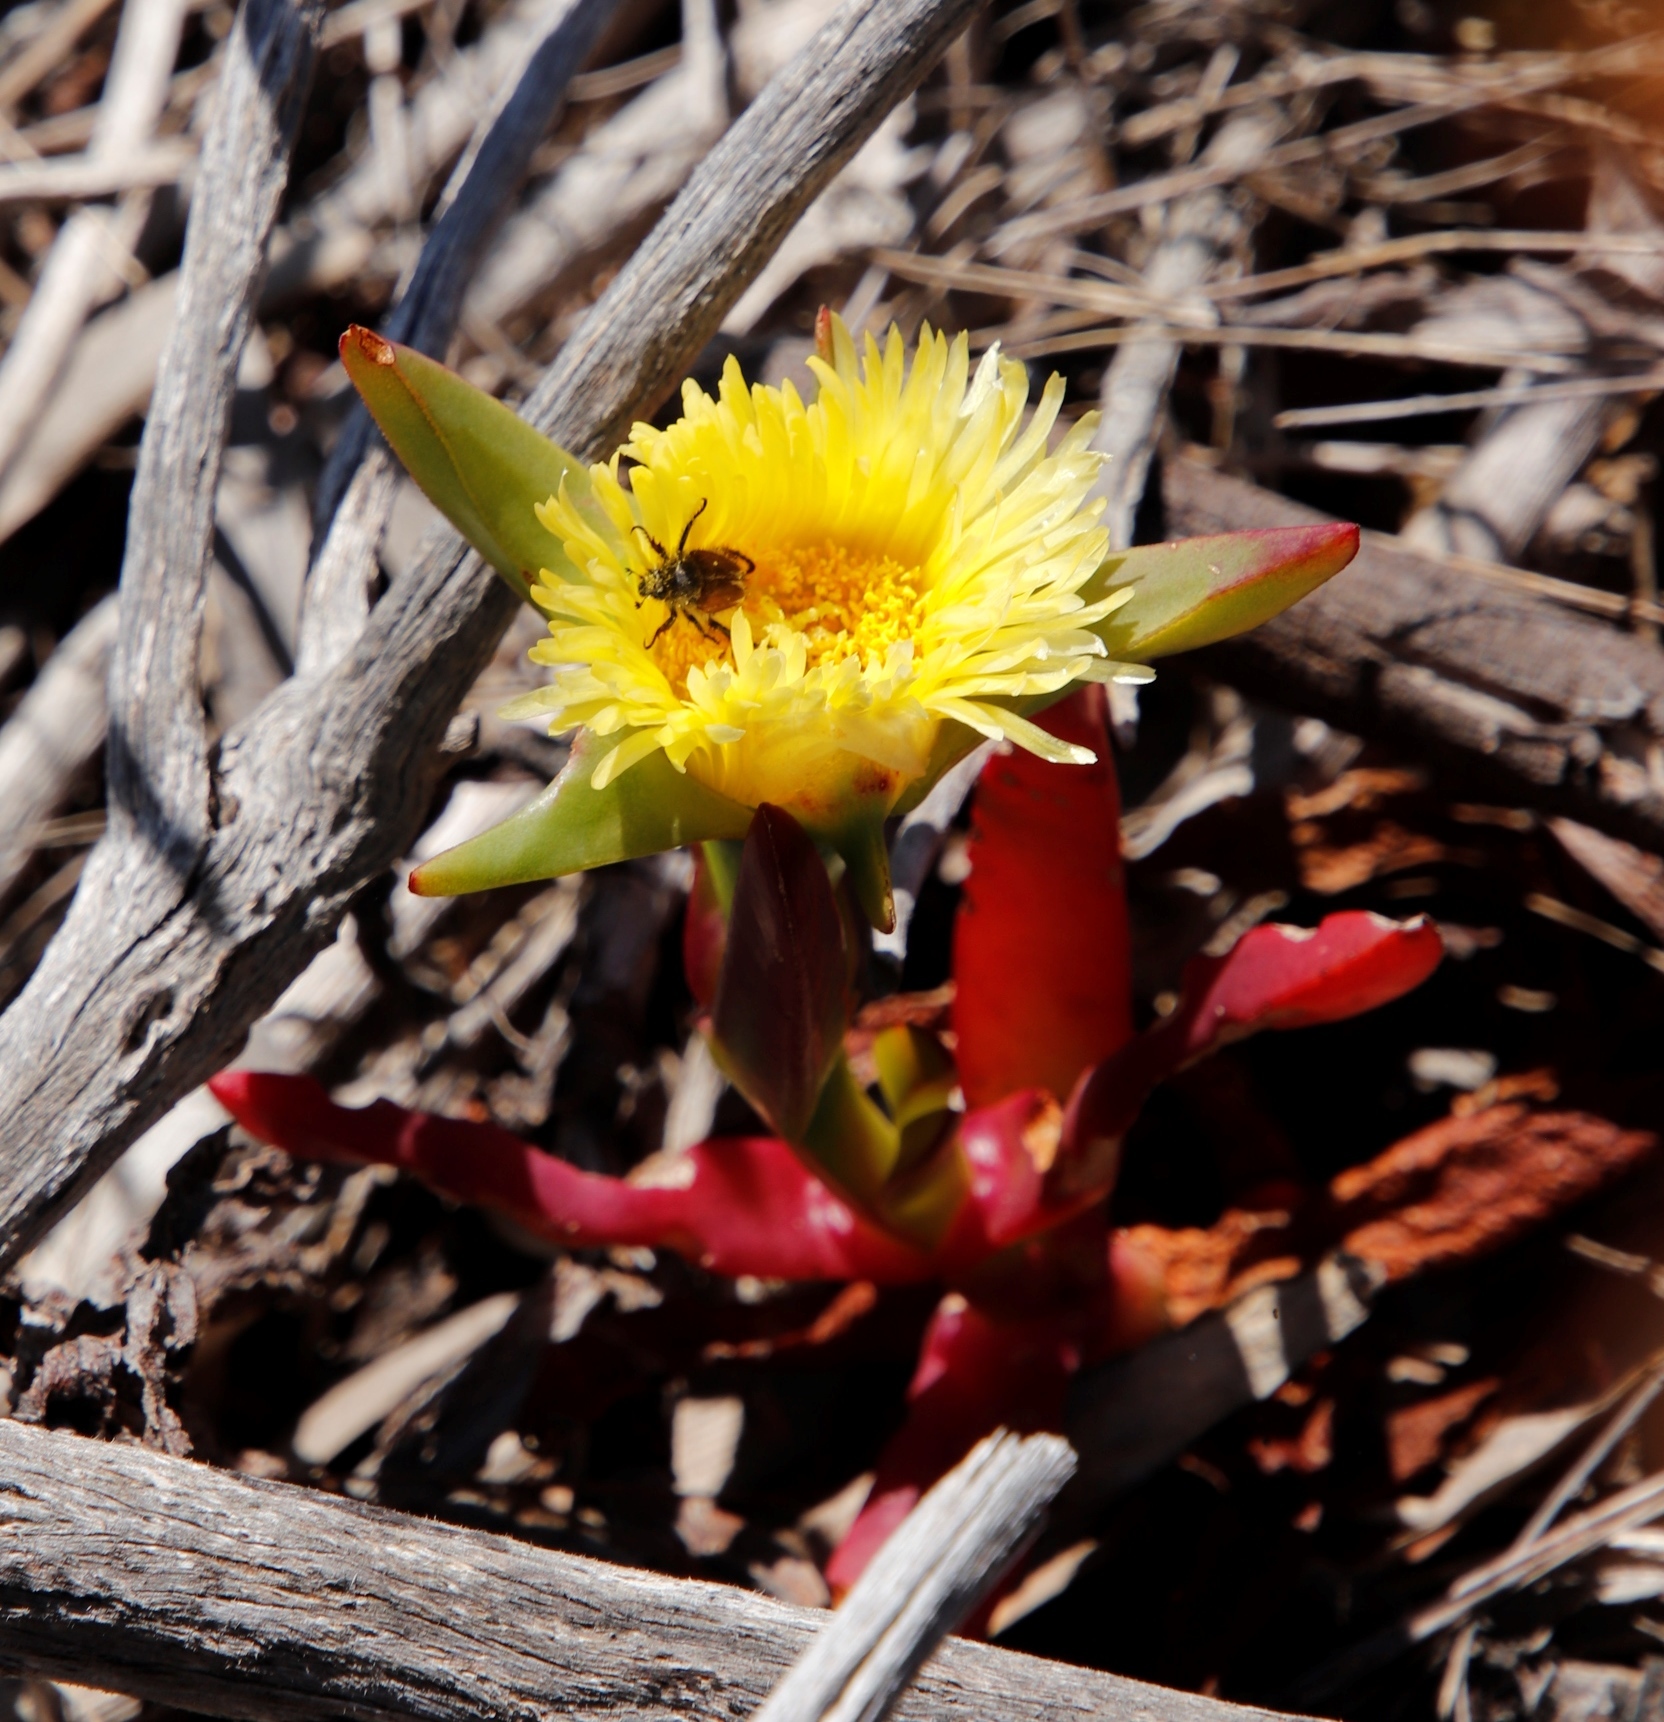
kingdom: Plantae
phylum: Tracheophyta
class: Magnoliopsida
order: Caryophyllales
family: Aizoaceae
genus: Carpobrotus
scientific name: Carpobrotus edulis
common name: Hottentot-fig
